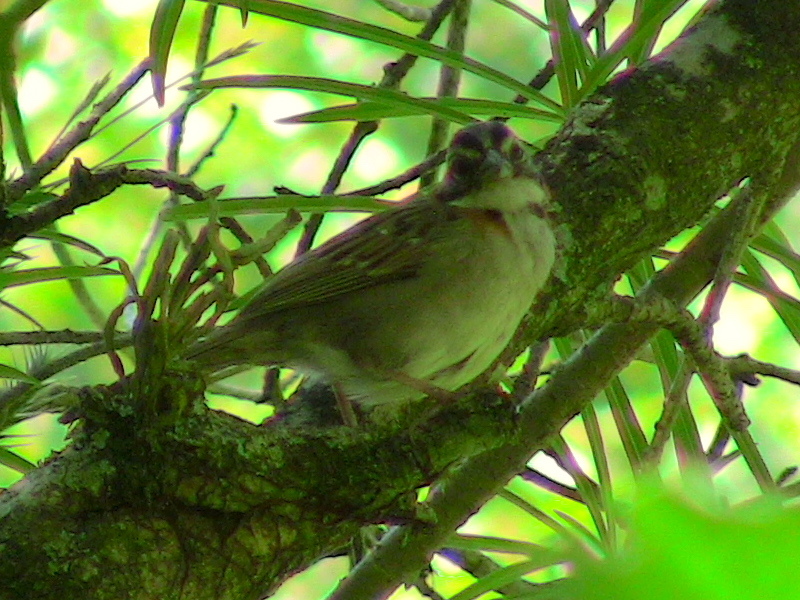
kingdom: Animalia
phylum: Chordata
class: Aves
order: Passeriformes
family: Passerellidae
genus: Zonotrichia
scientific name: Zonotrichia capensis
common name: Rufous-collared sparrow
